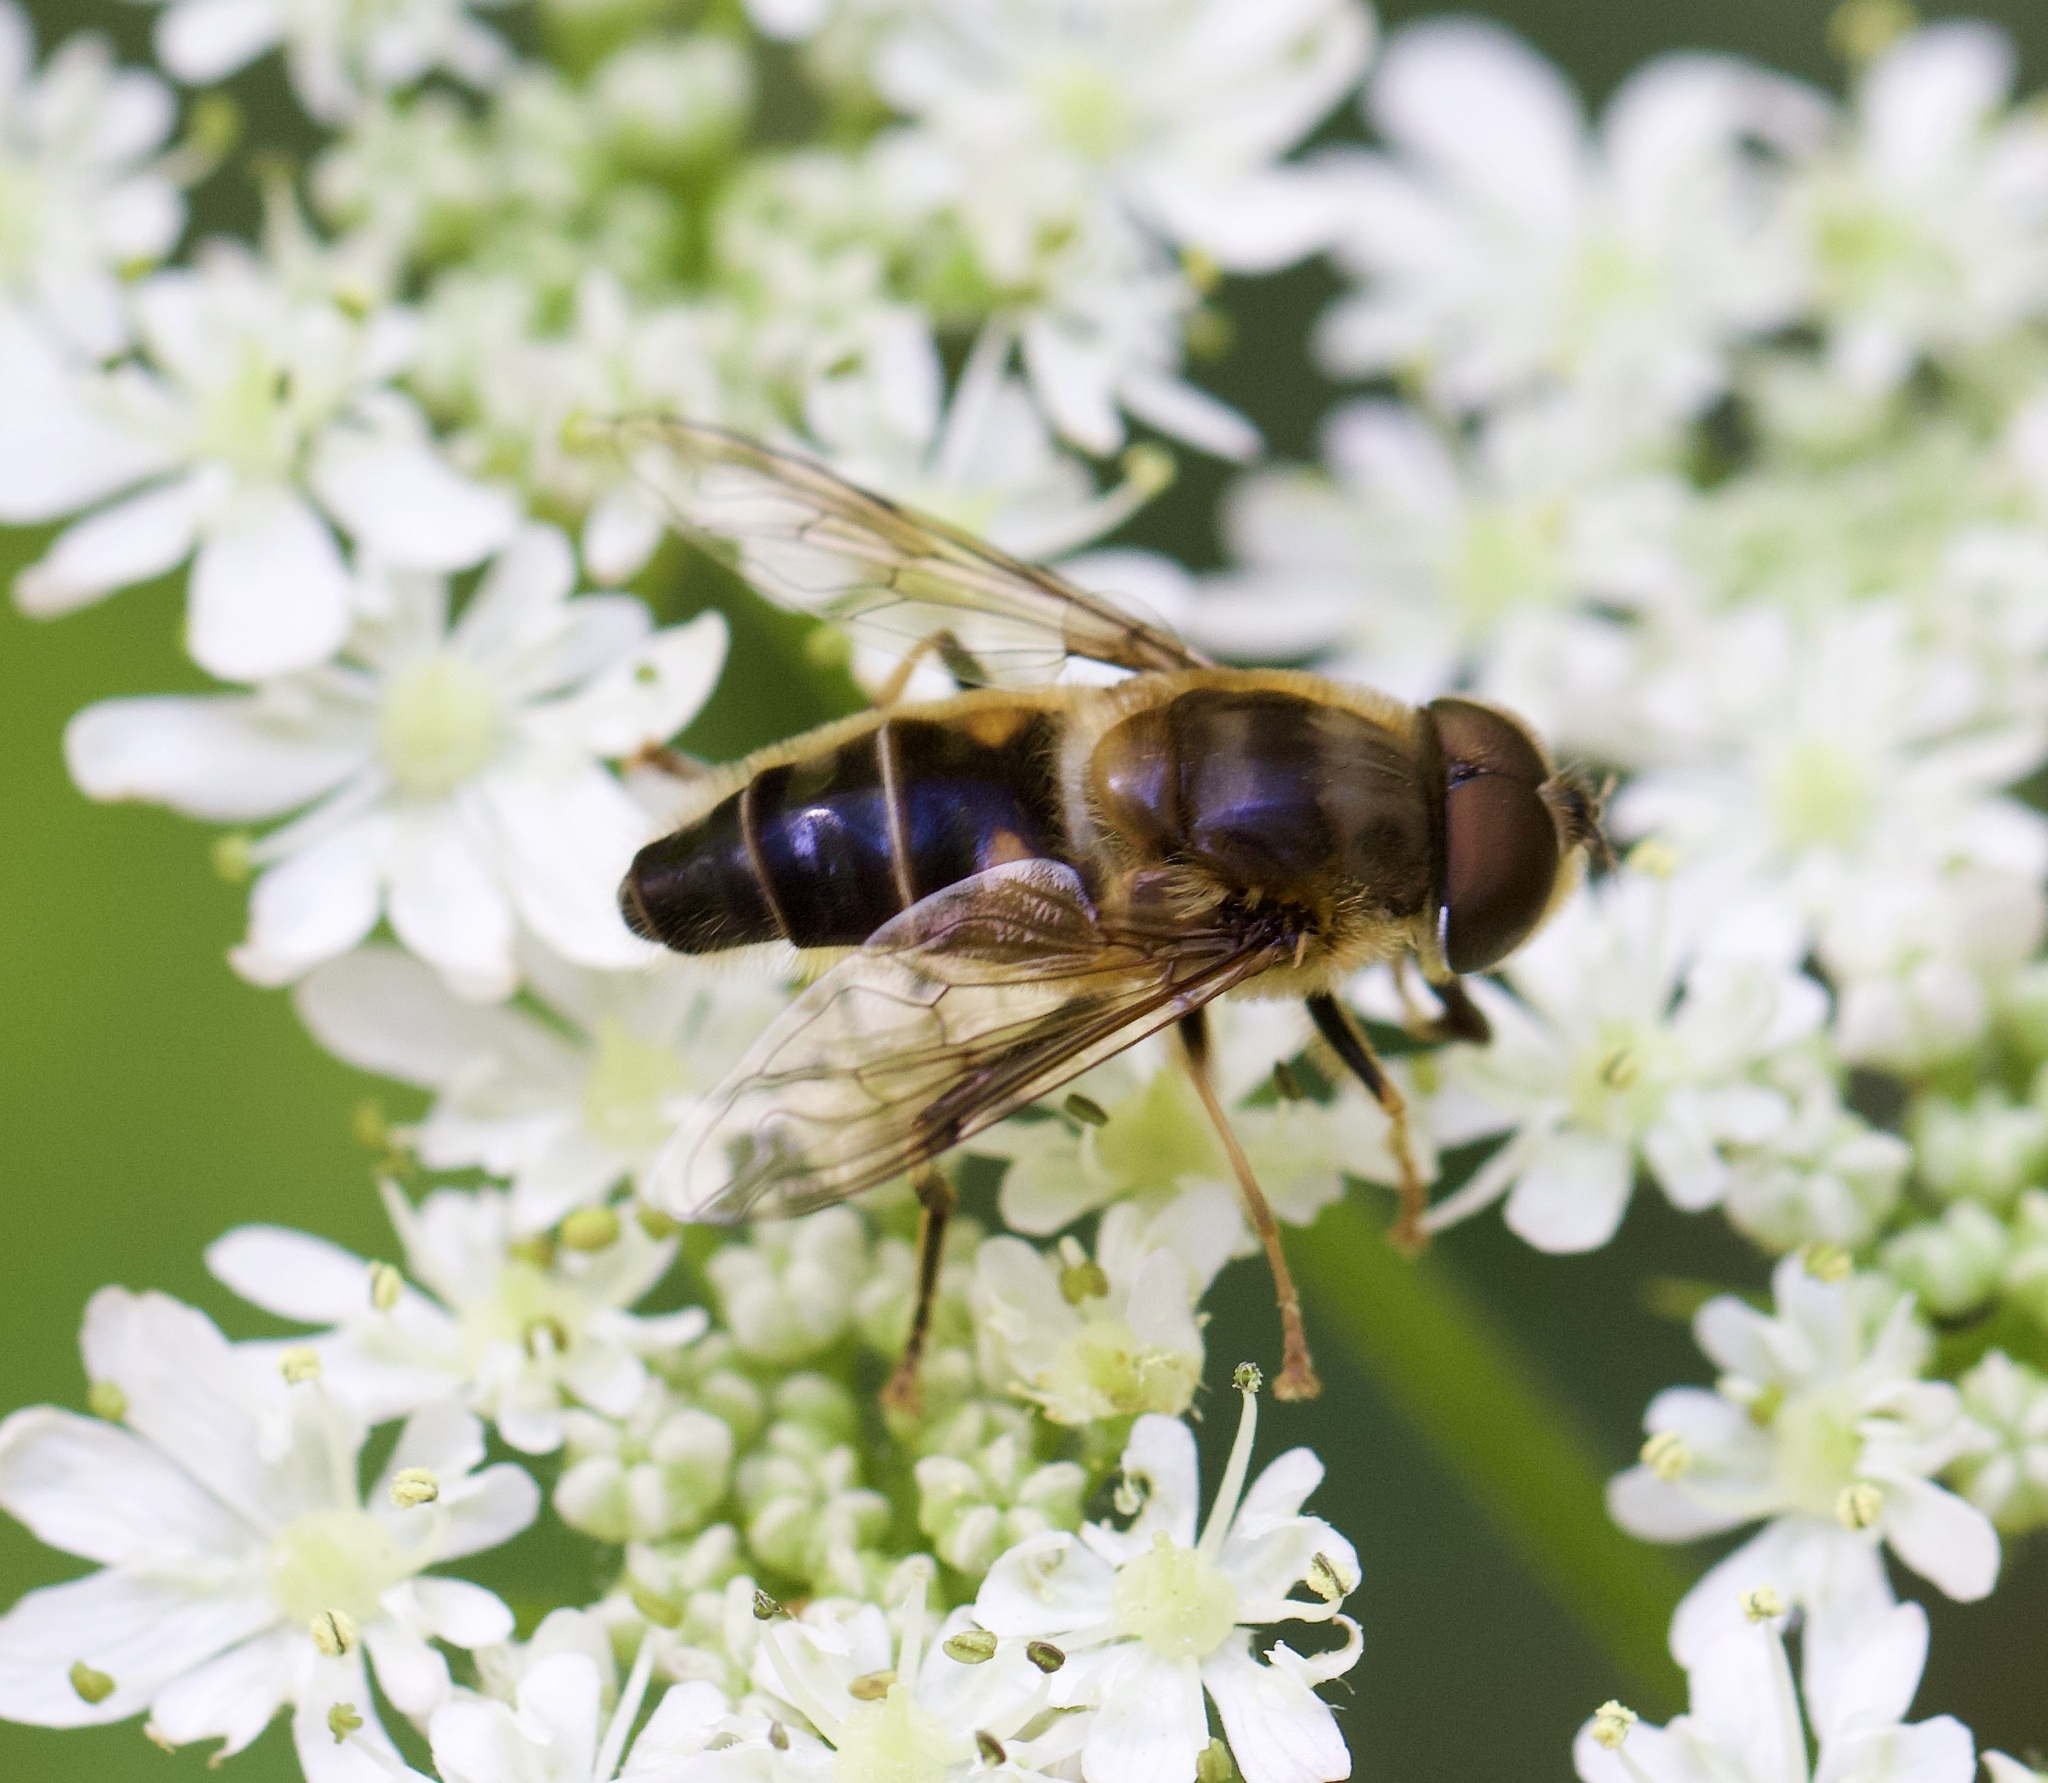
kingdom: Animalia
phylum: Arthropoda
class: Insecta
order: Diptera
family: Syrphidae
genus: Eristalis
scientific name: Eristalis pertinax
